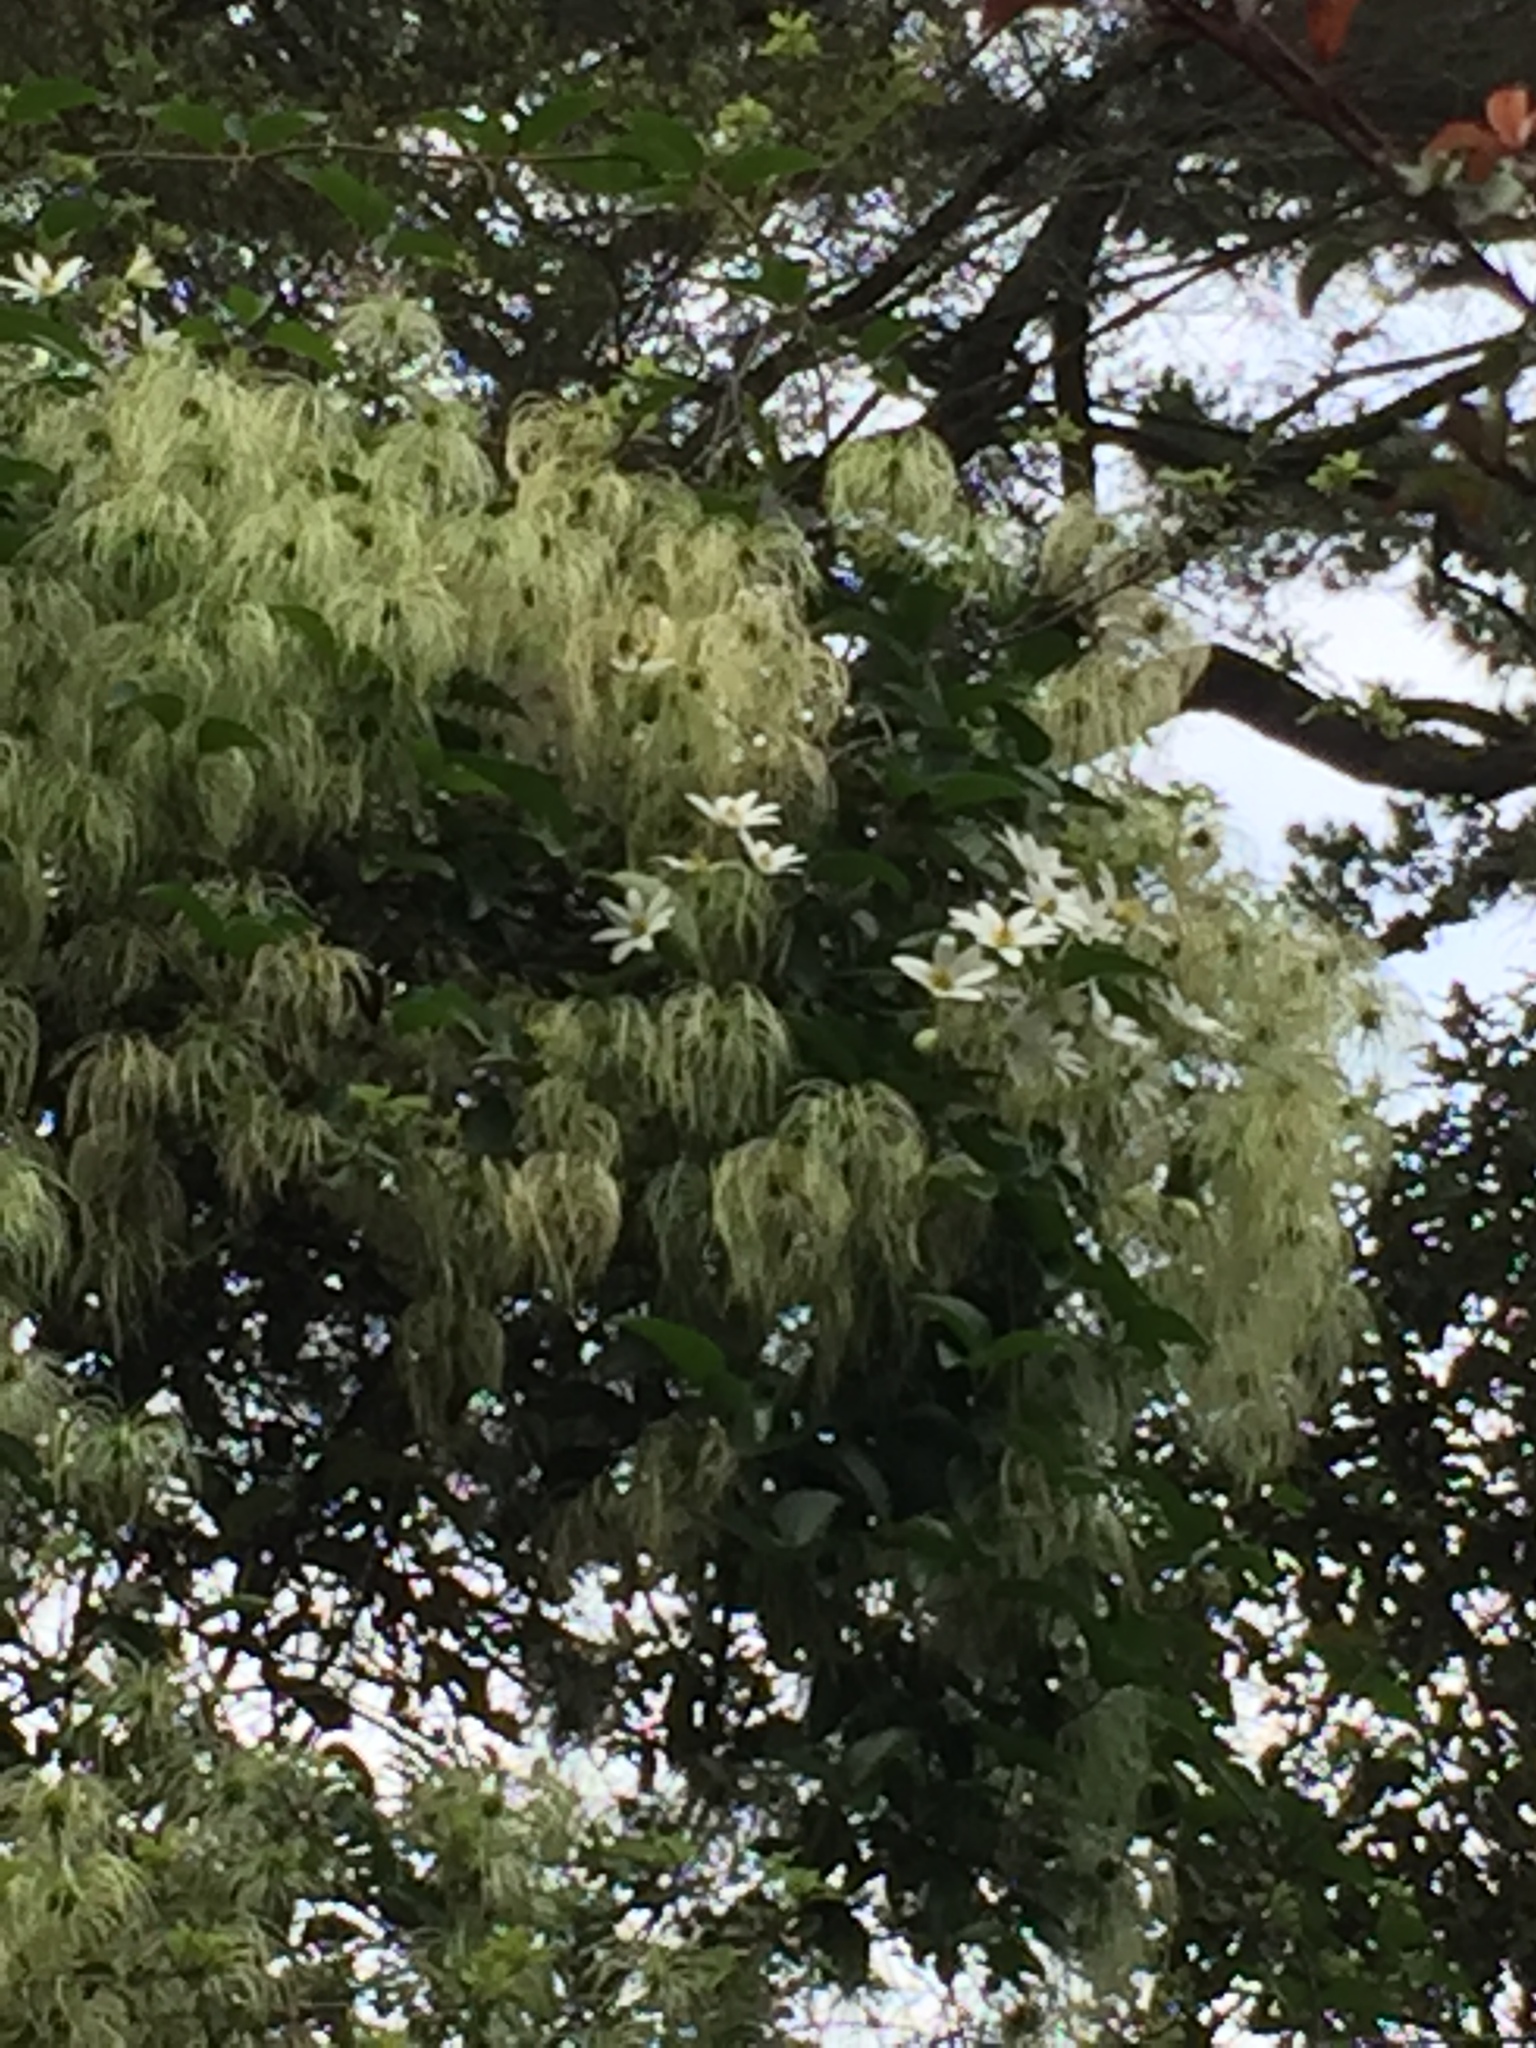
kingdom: Plantae
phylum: Tracheophyta
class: Magnoliopsida
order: Ranunculales
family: Ranunculaceae
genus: Clematis
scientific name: Clematis paniculata
